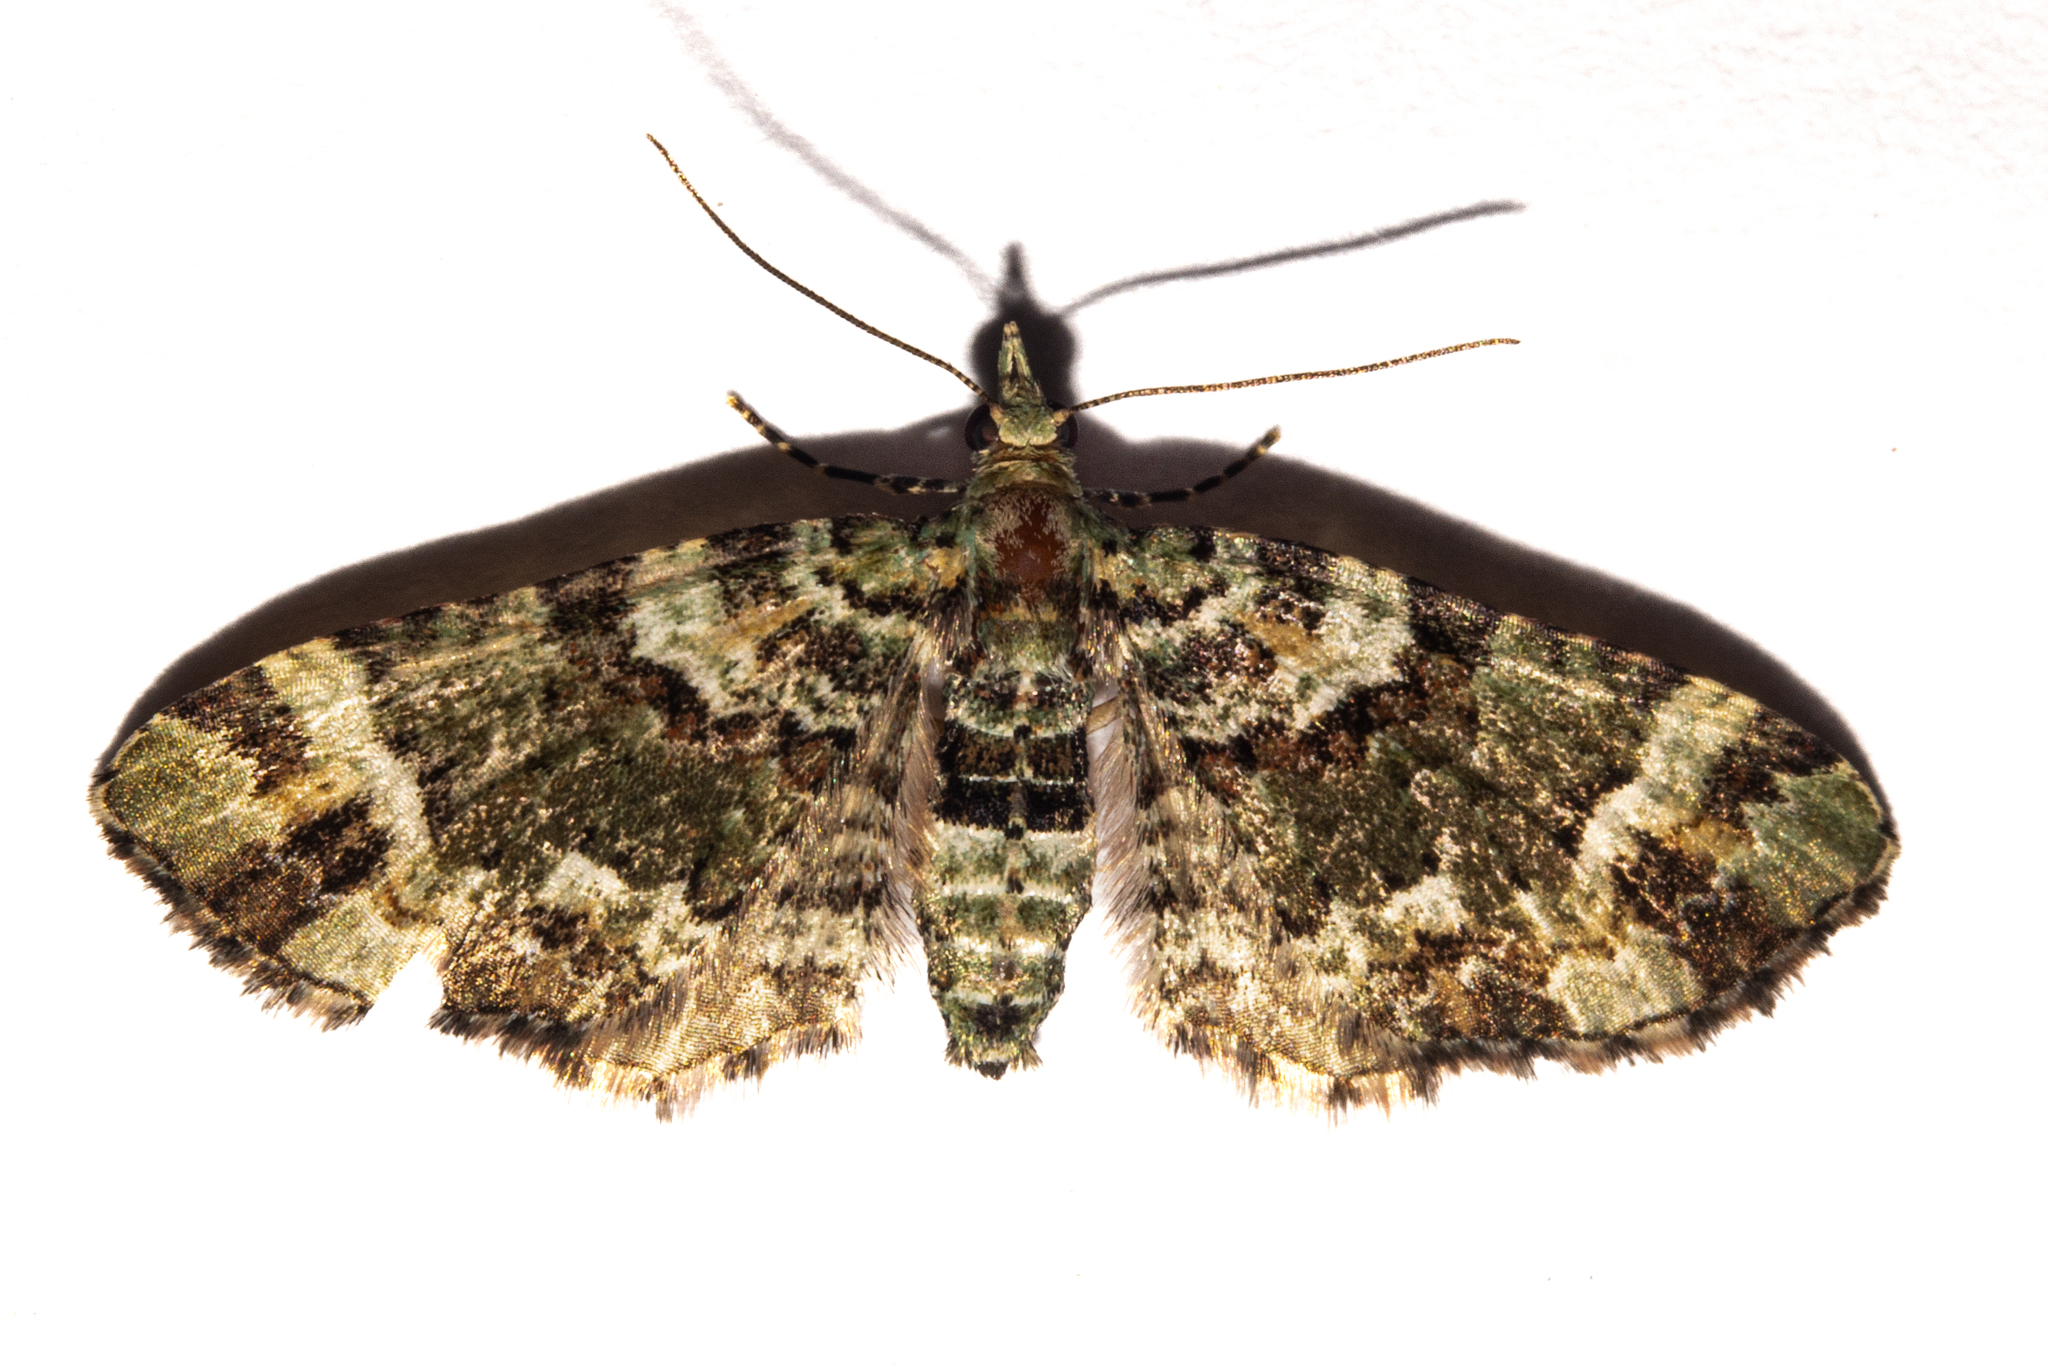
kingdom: Animalia
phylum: Arthropoda
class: Insecta
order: Lepidoptera
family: Geometridae
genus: Pasiphila
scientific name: Pasiphila bilineolata
